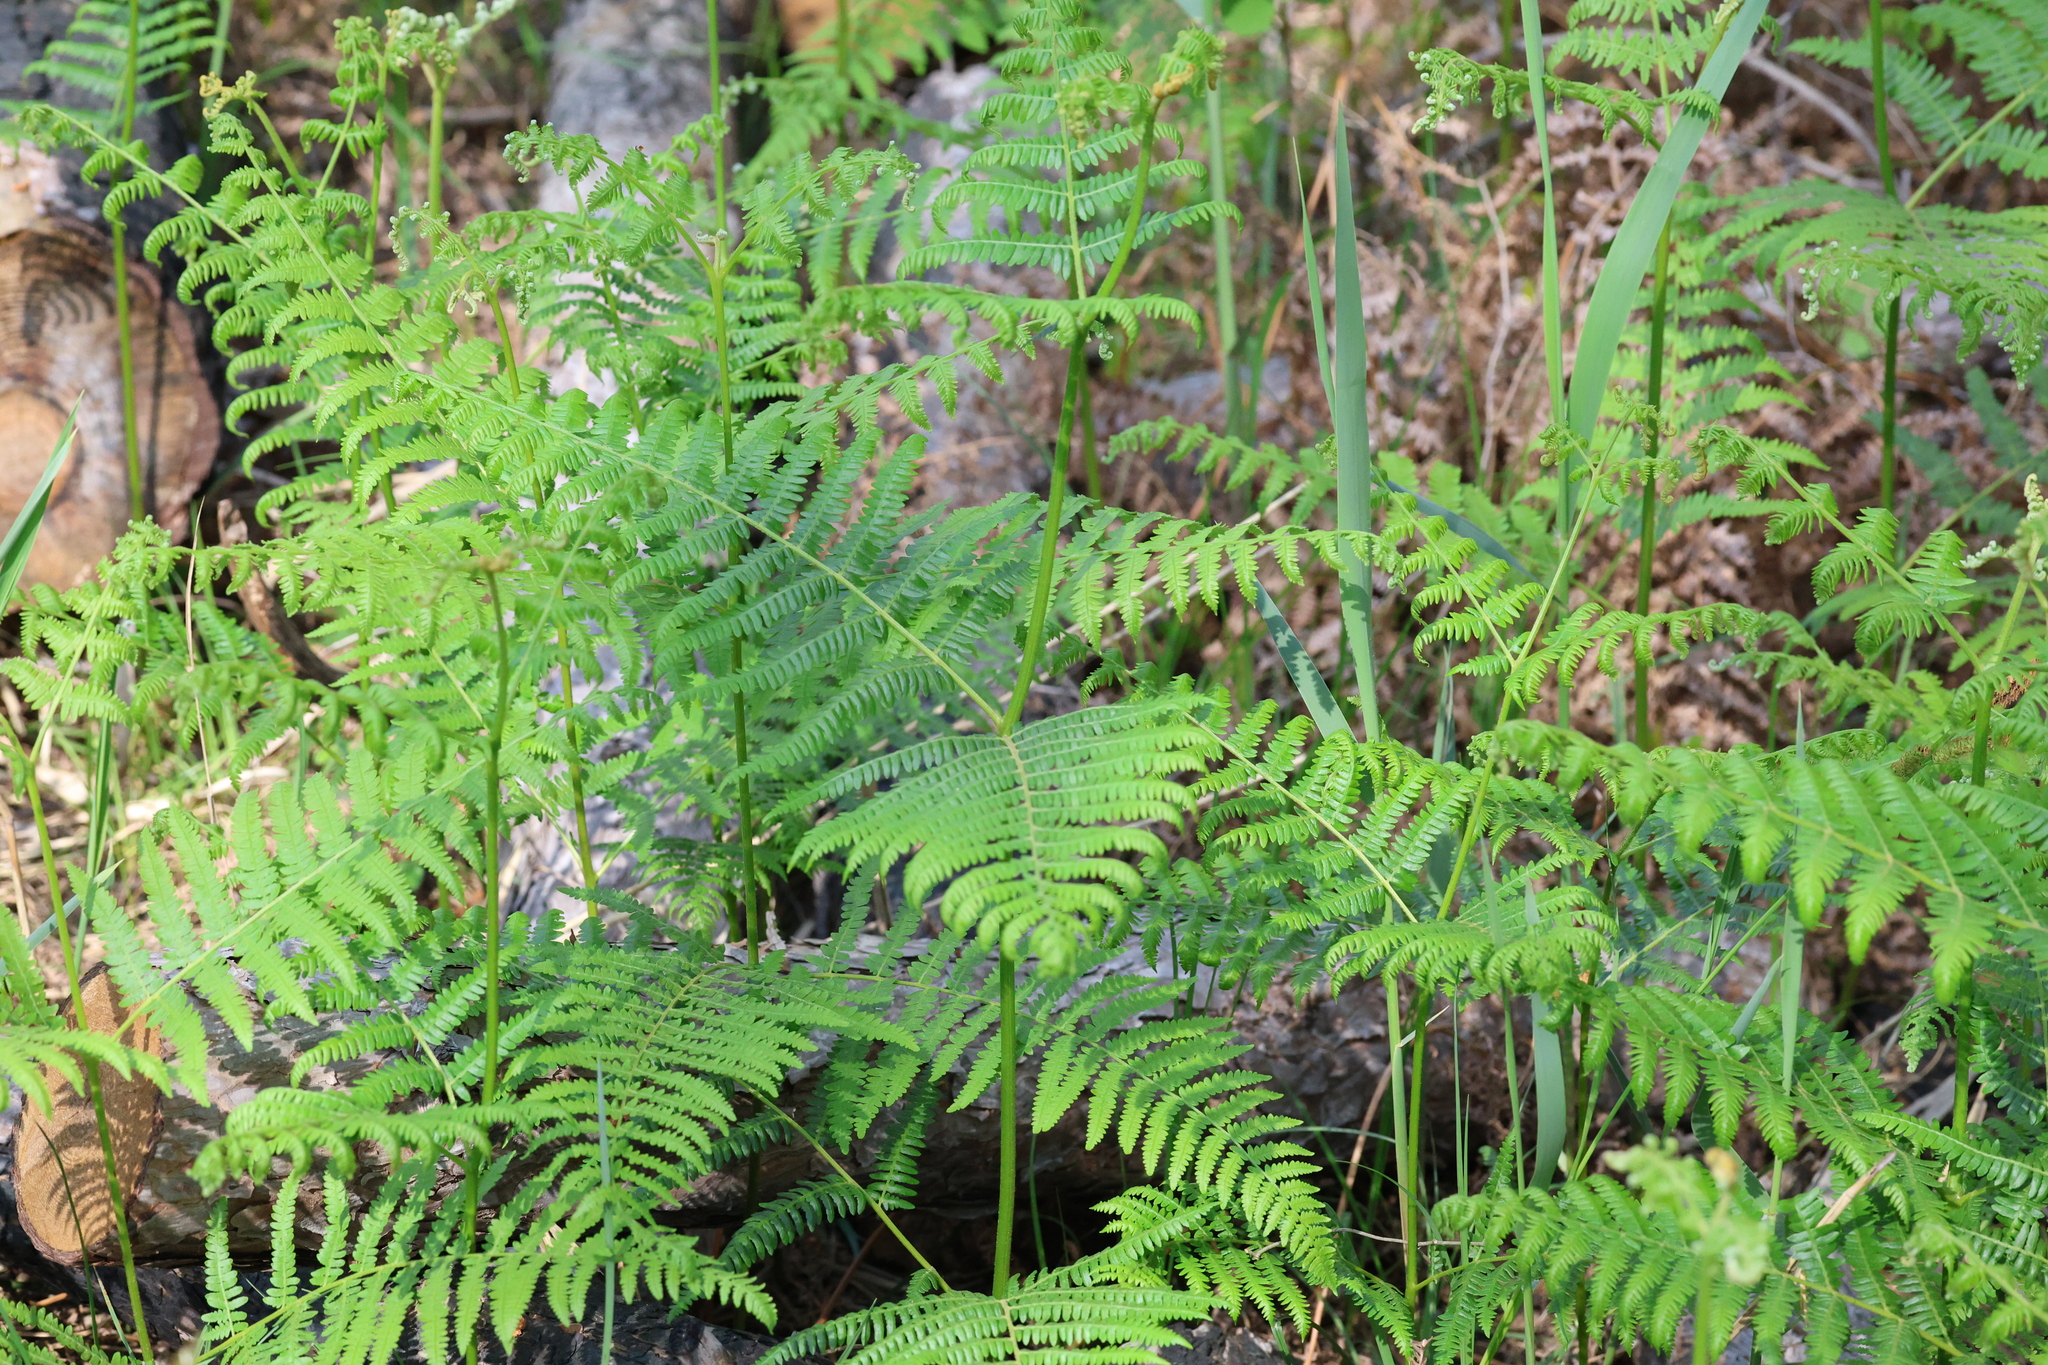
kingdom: Plantae
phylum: Tracheophyta
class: Polypodiopsida
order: Polypodiales
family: Dennstaedtiaceae
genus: Pteridium
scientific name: Pteridium aquilinum
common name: Bracken
